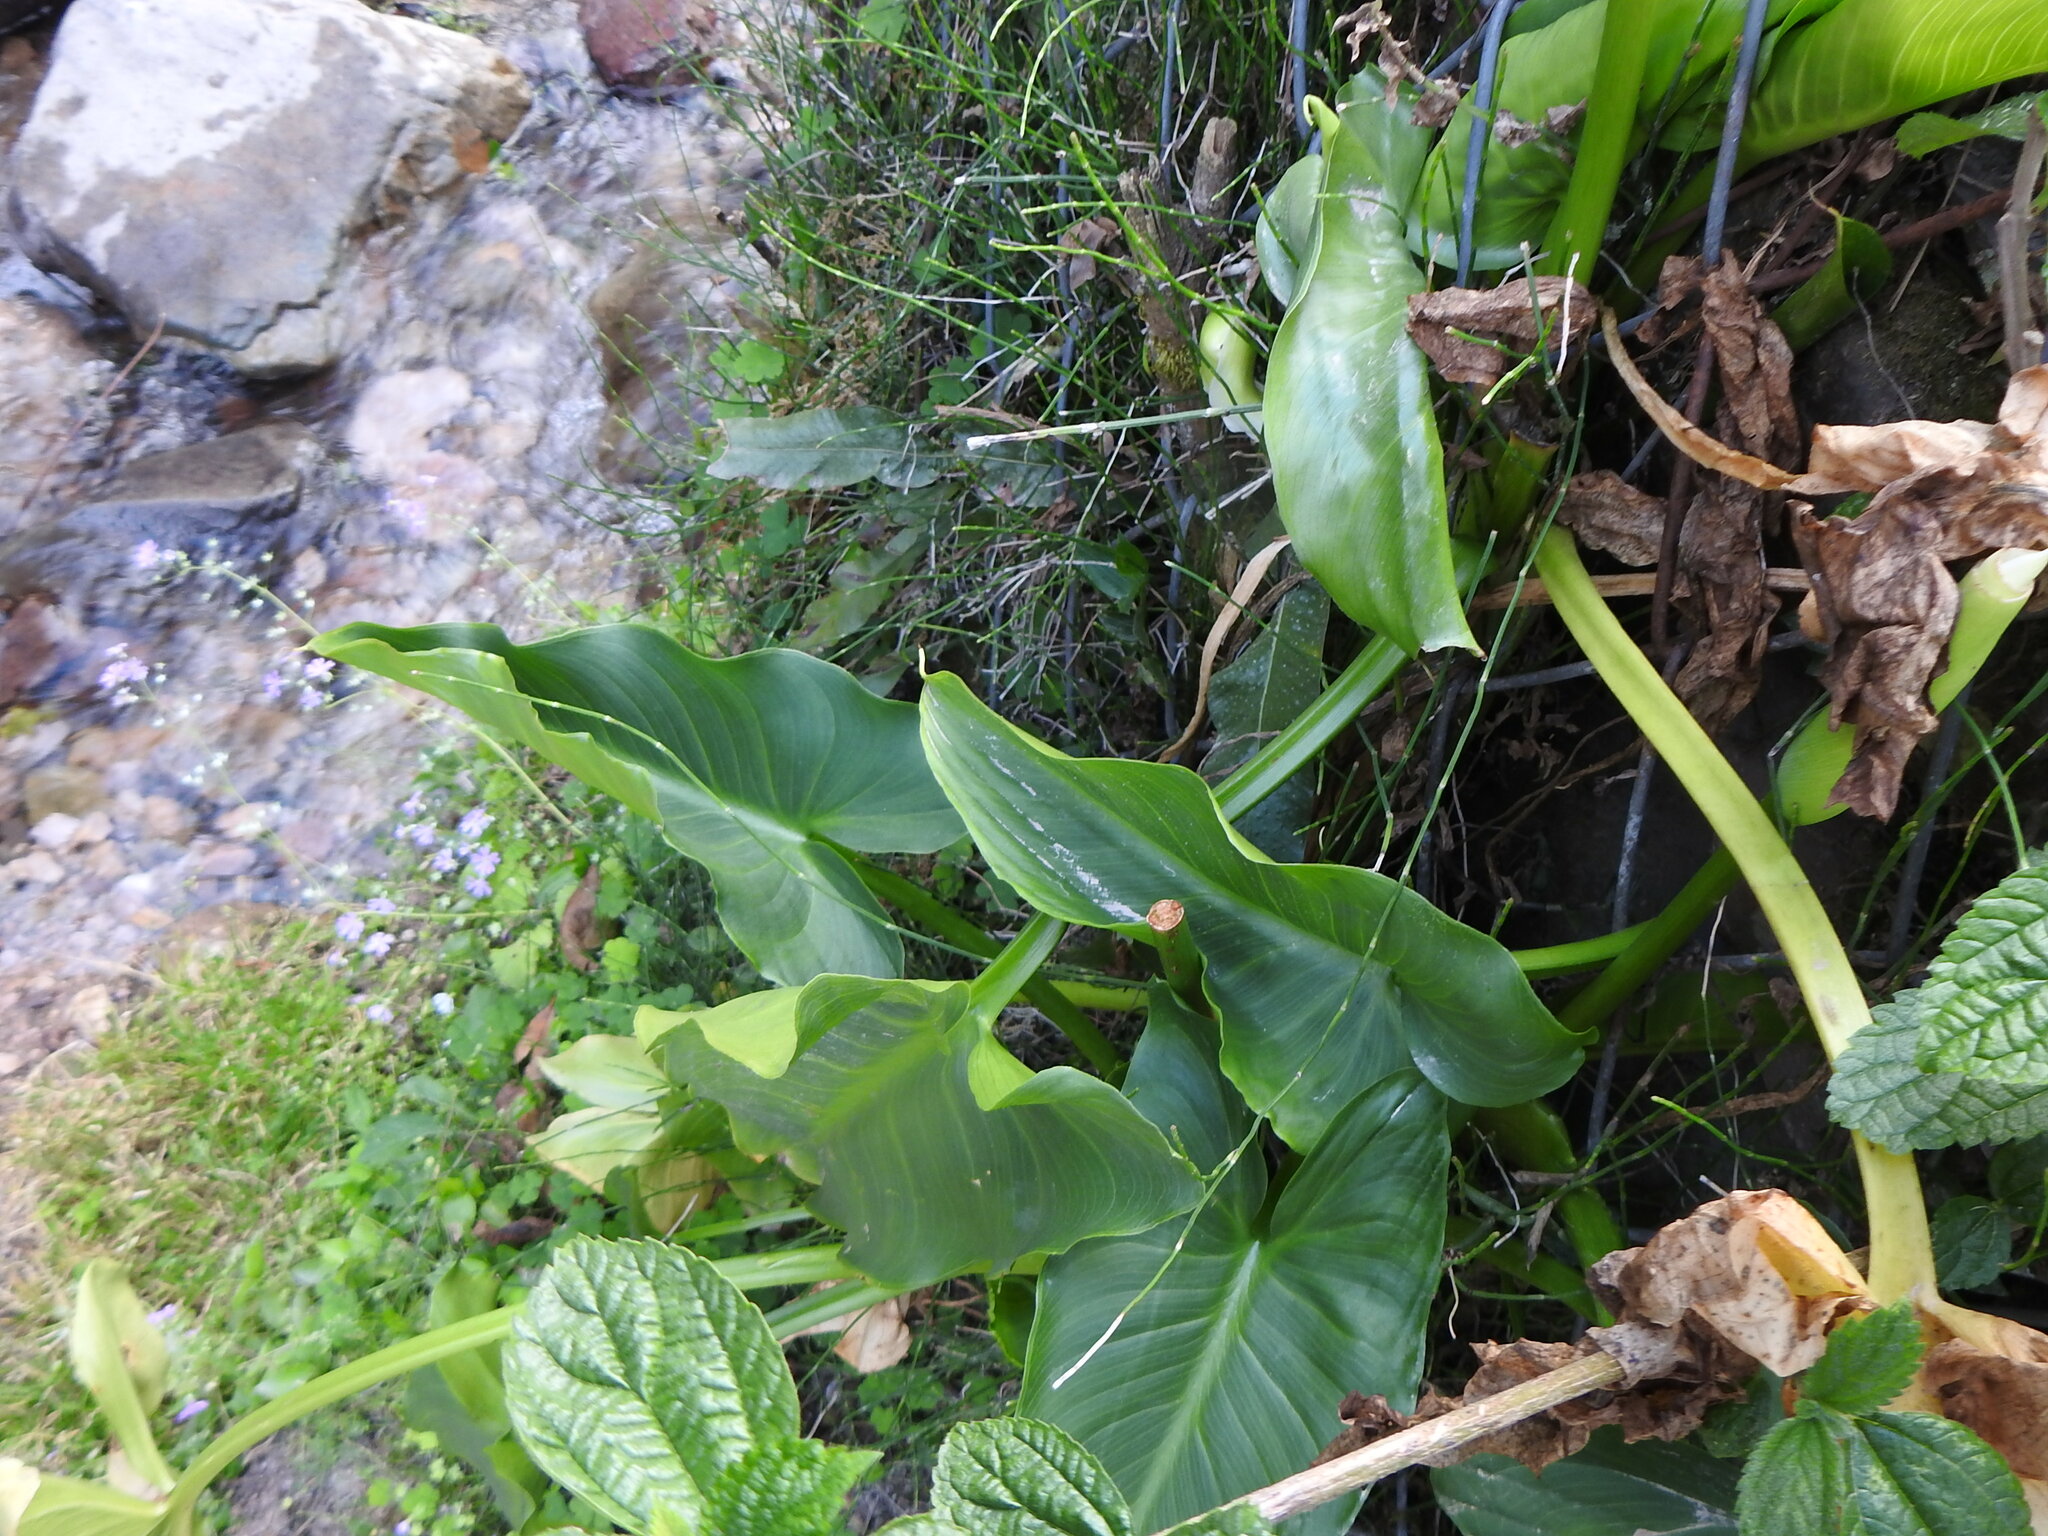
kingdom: Plantae
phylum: Tracheophyta
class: Liliopsida
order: Alismatales
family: Araceae
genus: Zantedeschia
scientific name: Zantedeschia aethiopica
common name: Altar-lily
